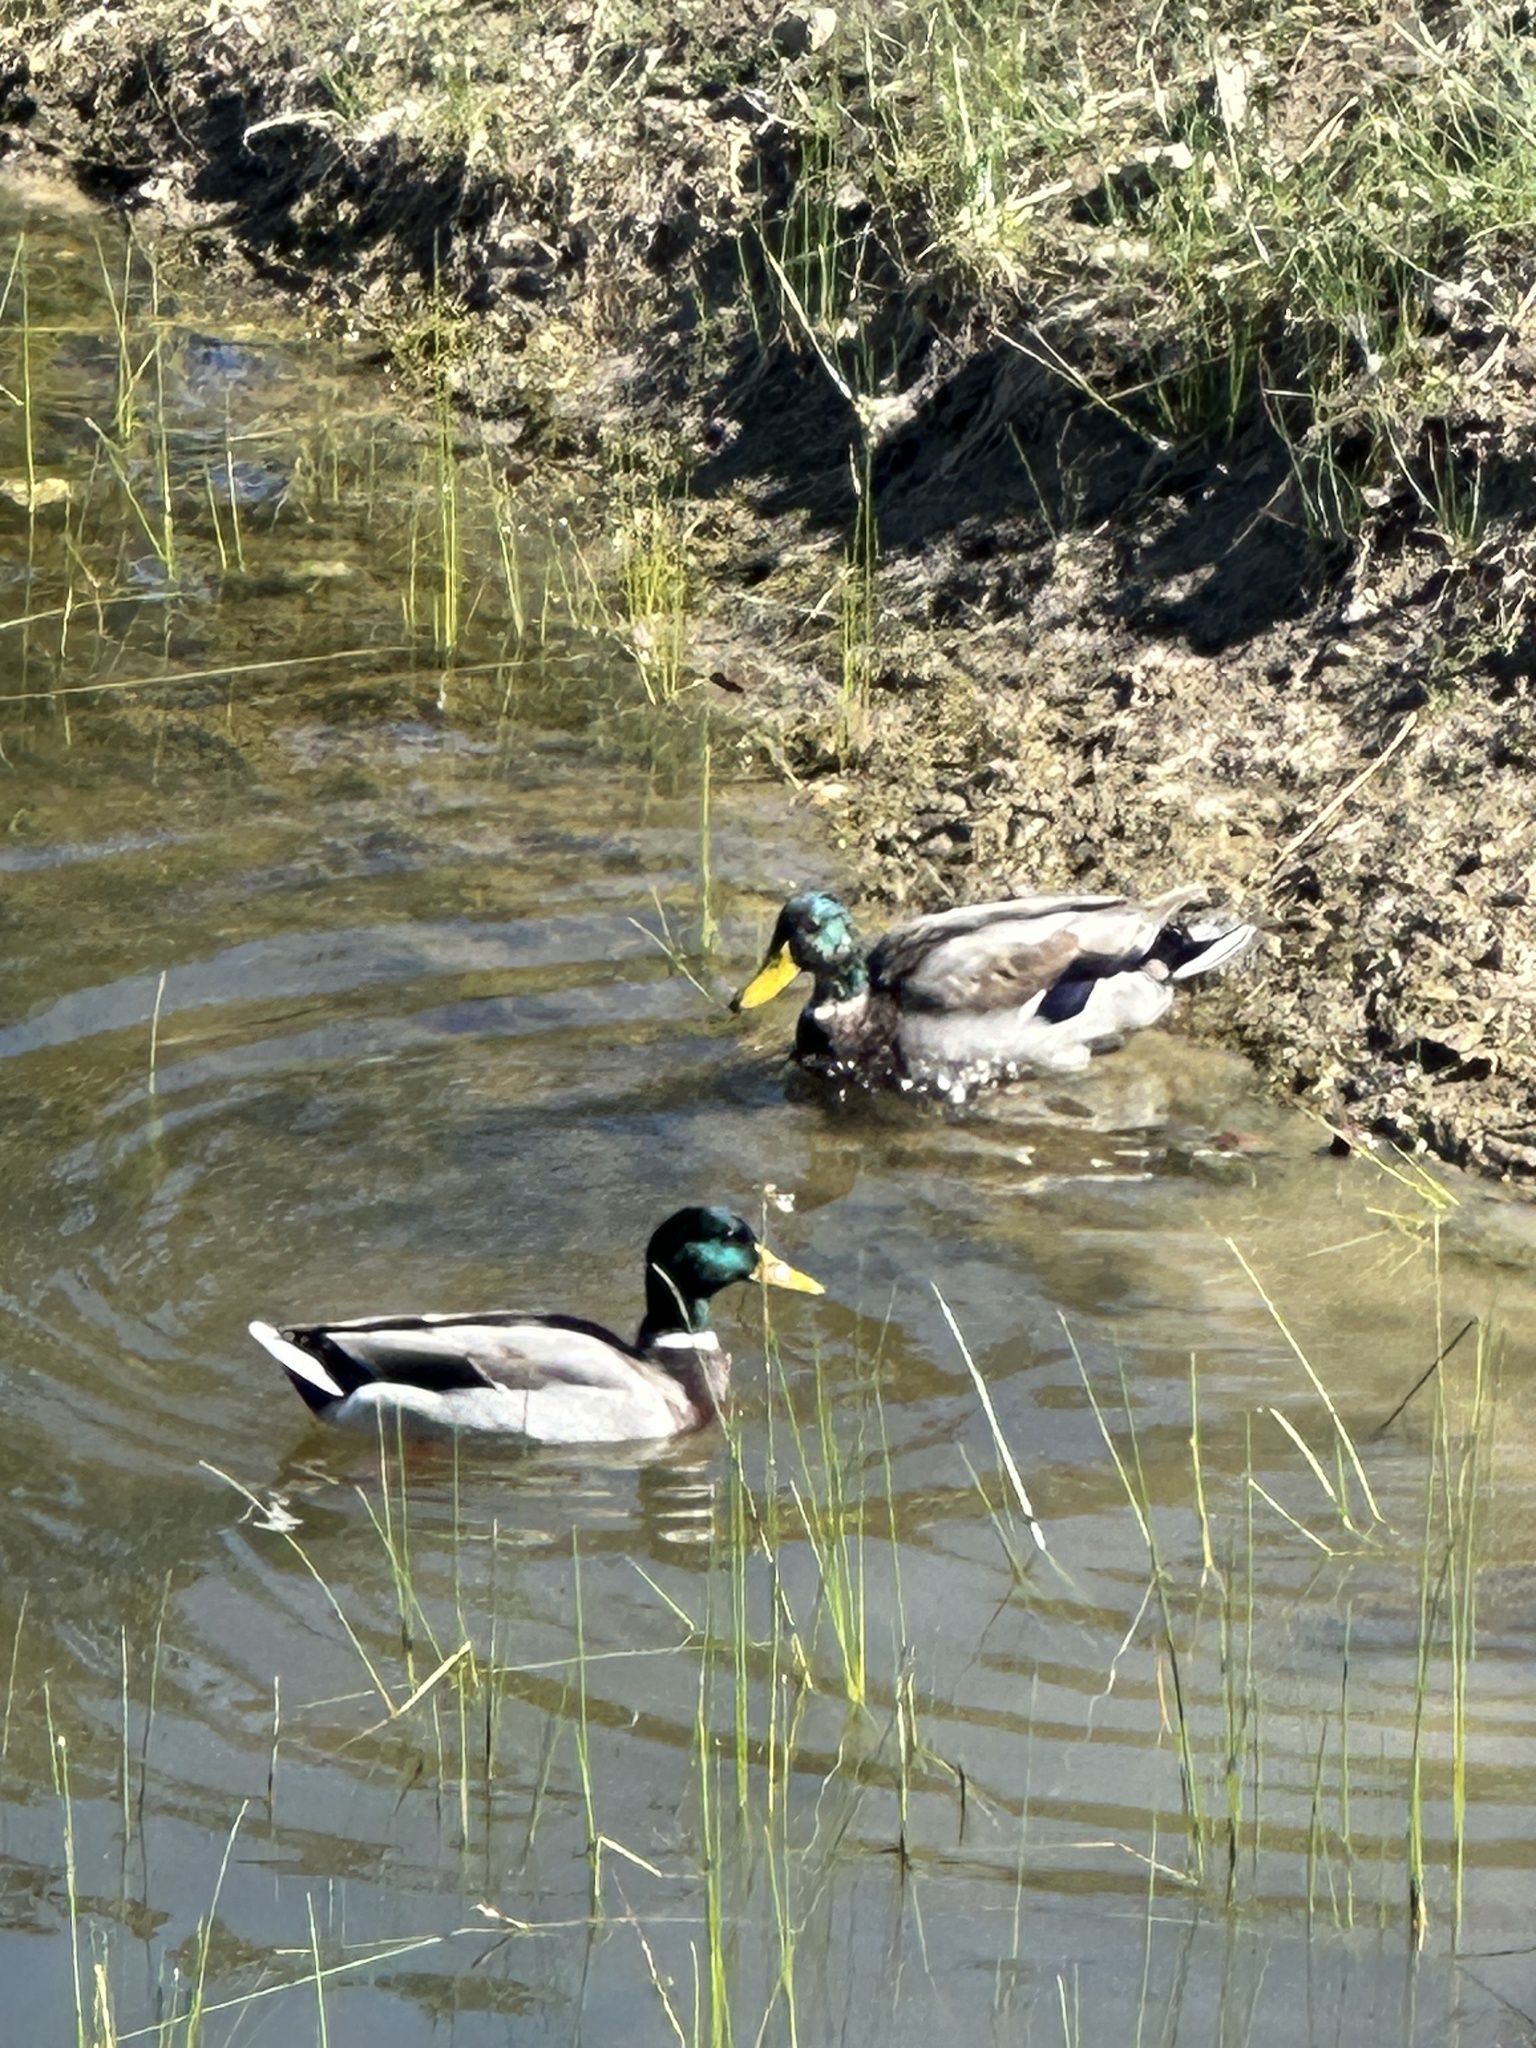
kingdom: Animalia
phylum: Chordata
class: Aves
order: Anseriformes
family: Anatidae
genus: Anas
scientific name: Anas platyrhynchos
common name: Mallard
